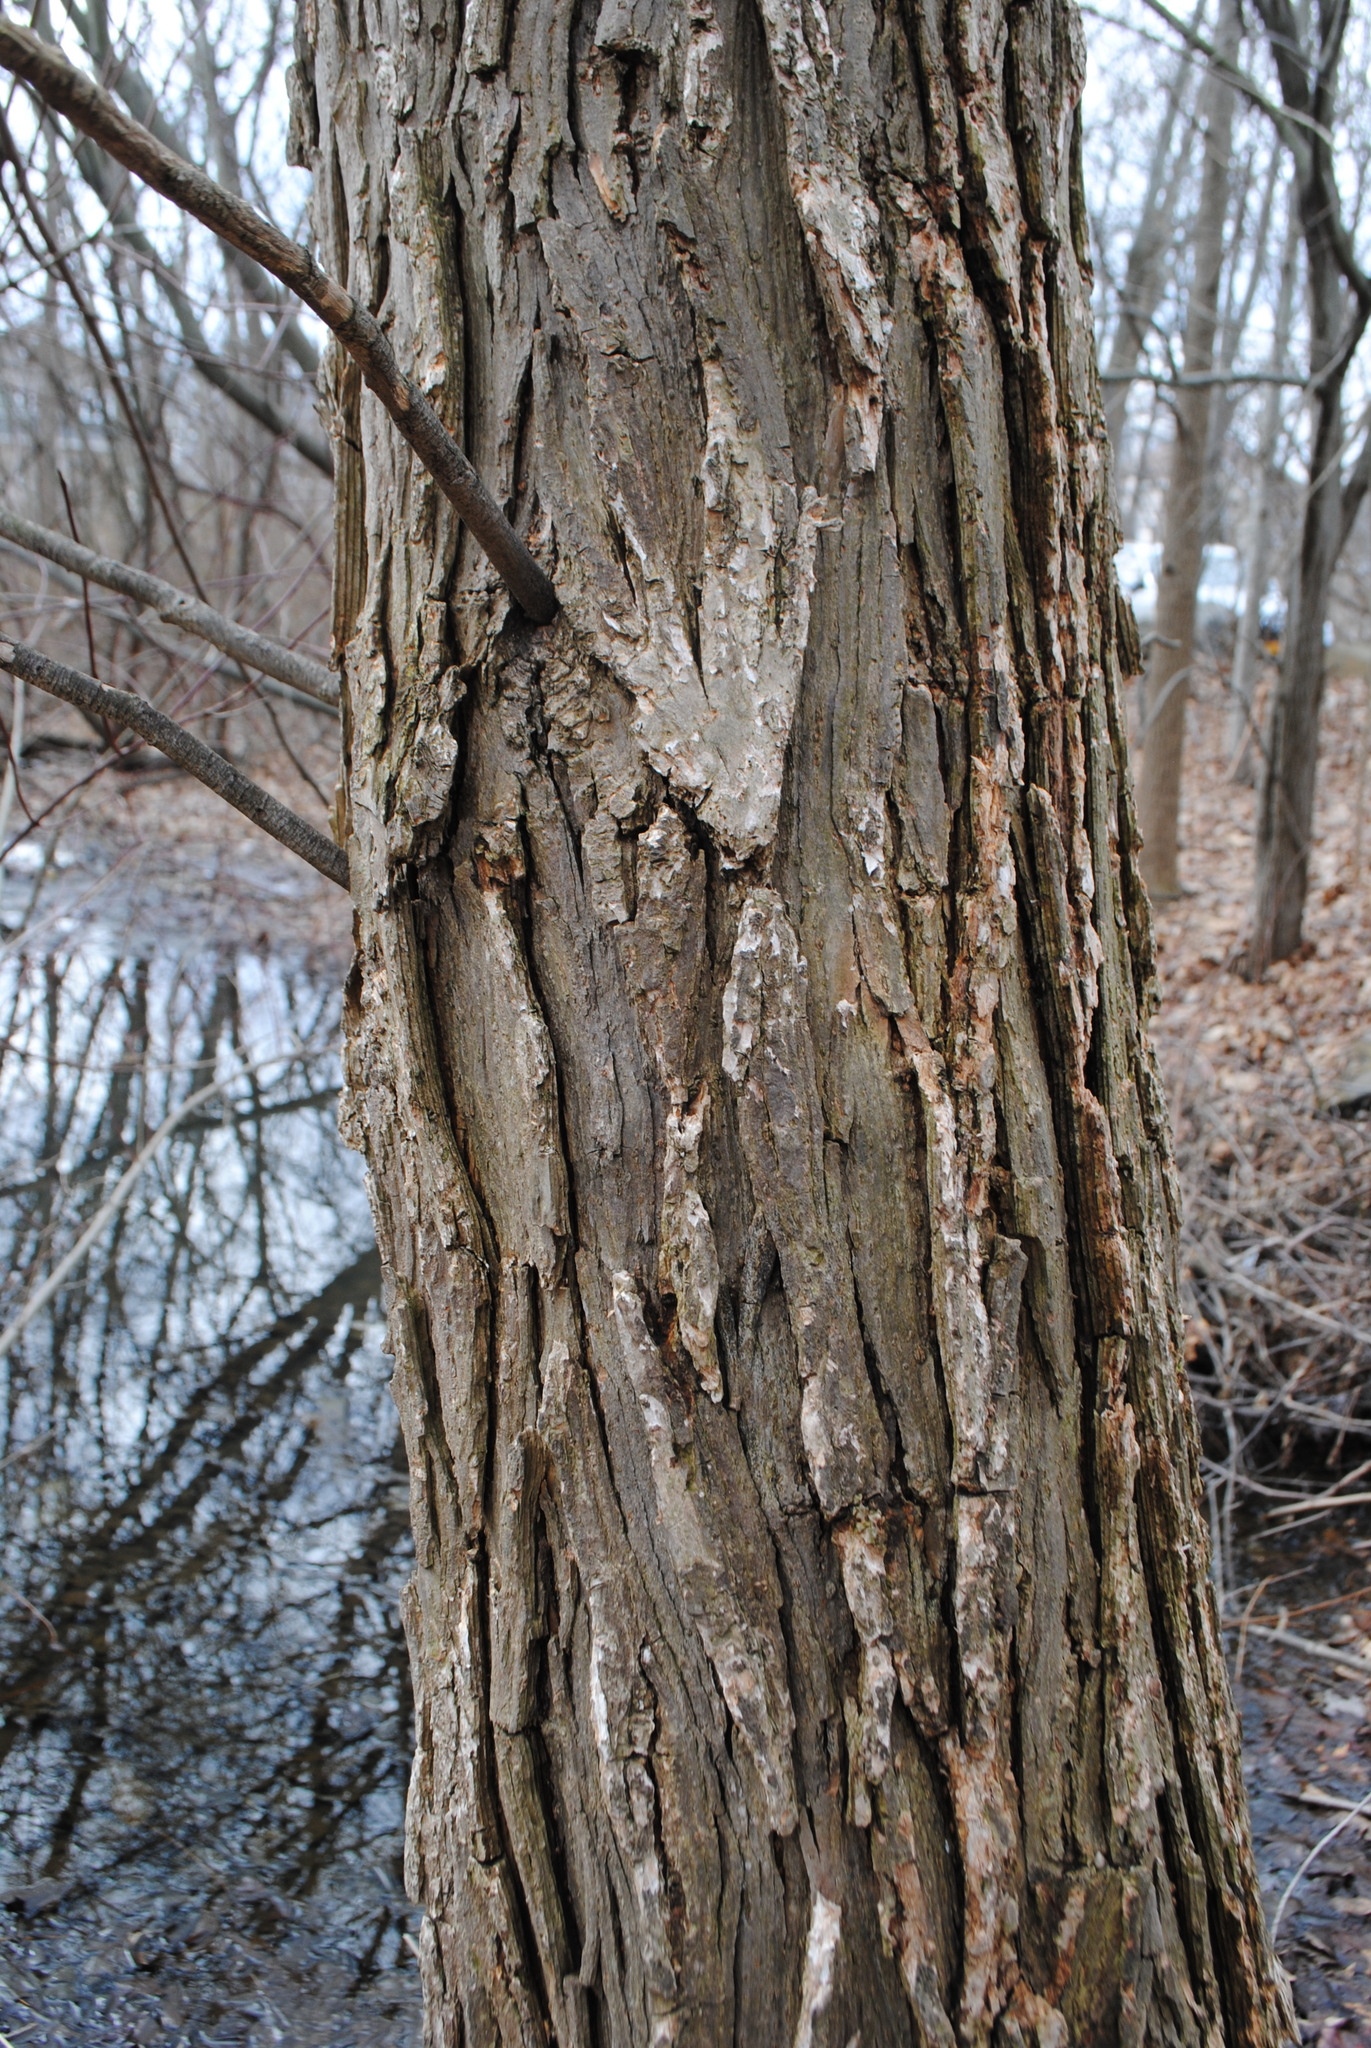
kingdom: Plantae
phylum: Tracheophyta
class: Magnoliopsida
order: Malpighiales
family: Salicaceae
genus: Salix
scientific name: Salix nigra
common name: Black willow
